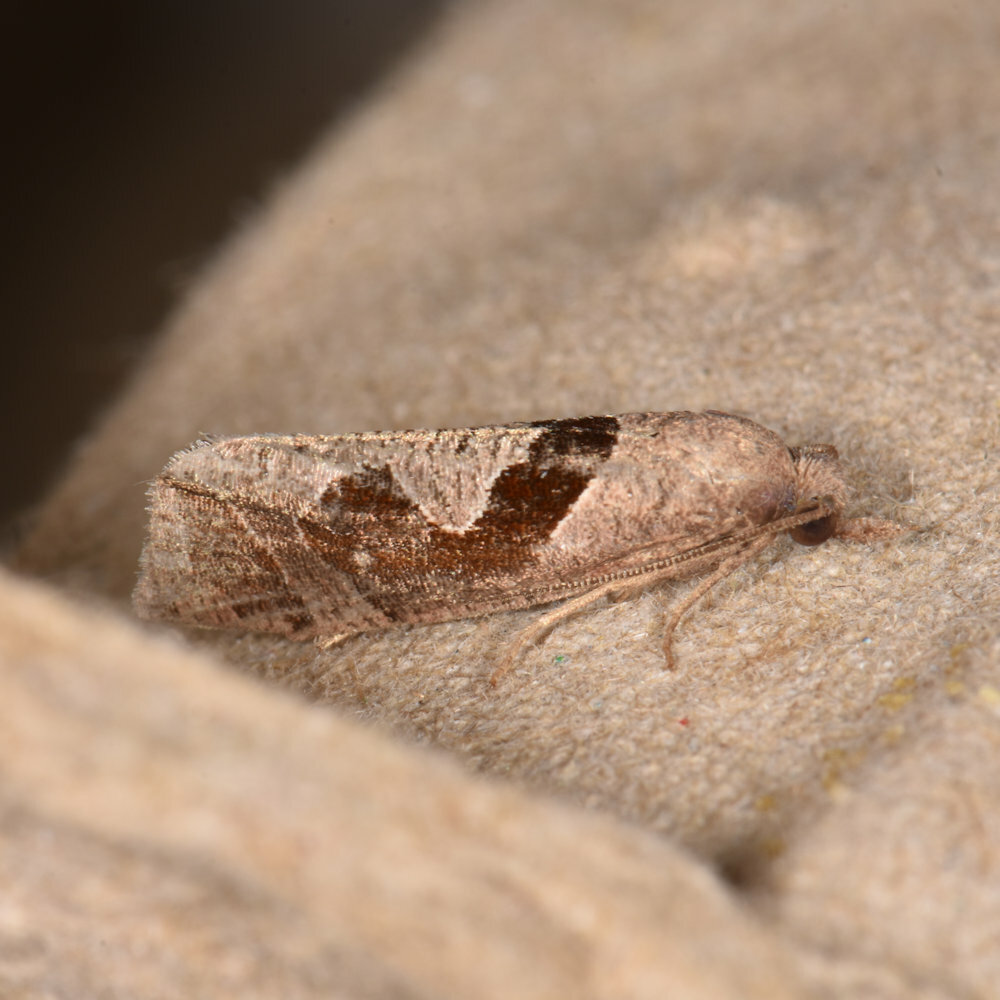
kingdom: Animalia
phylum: Arthropoda
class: Insecta
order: Lepidoptera
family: Tortricidae
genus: Pelochrista
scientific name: Pelochrista similiana
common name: Similar eucosma
